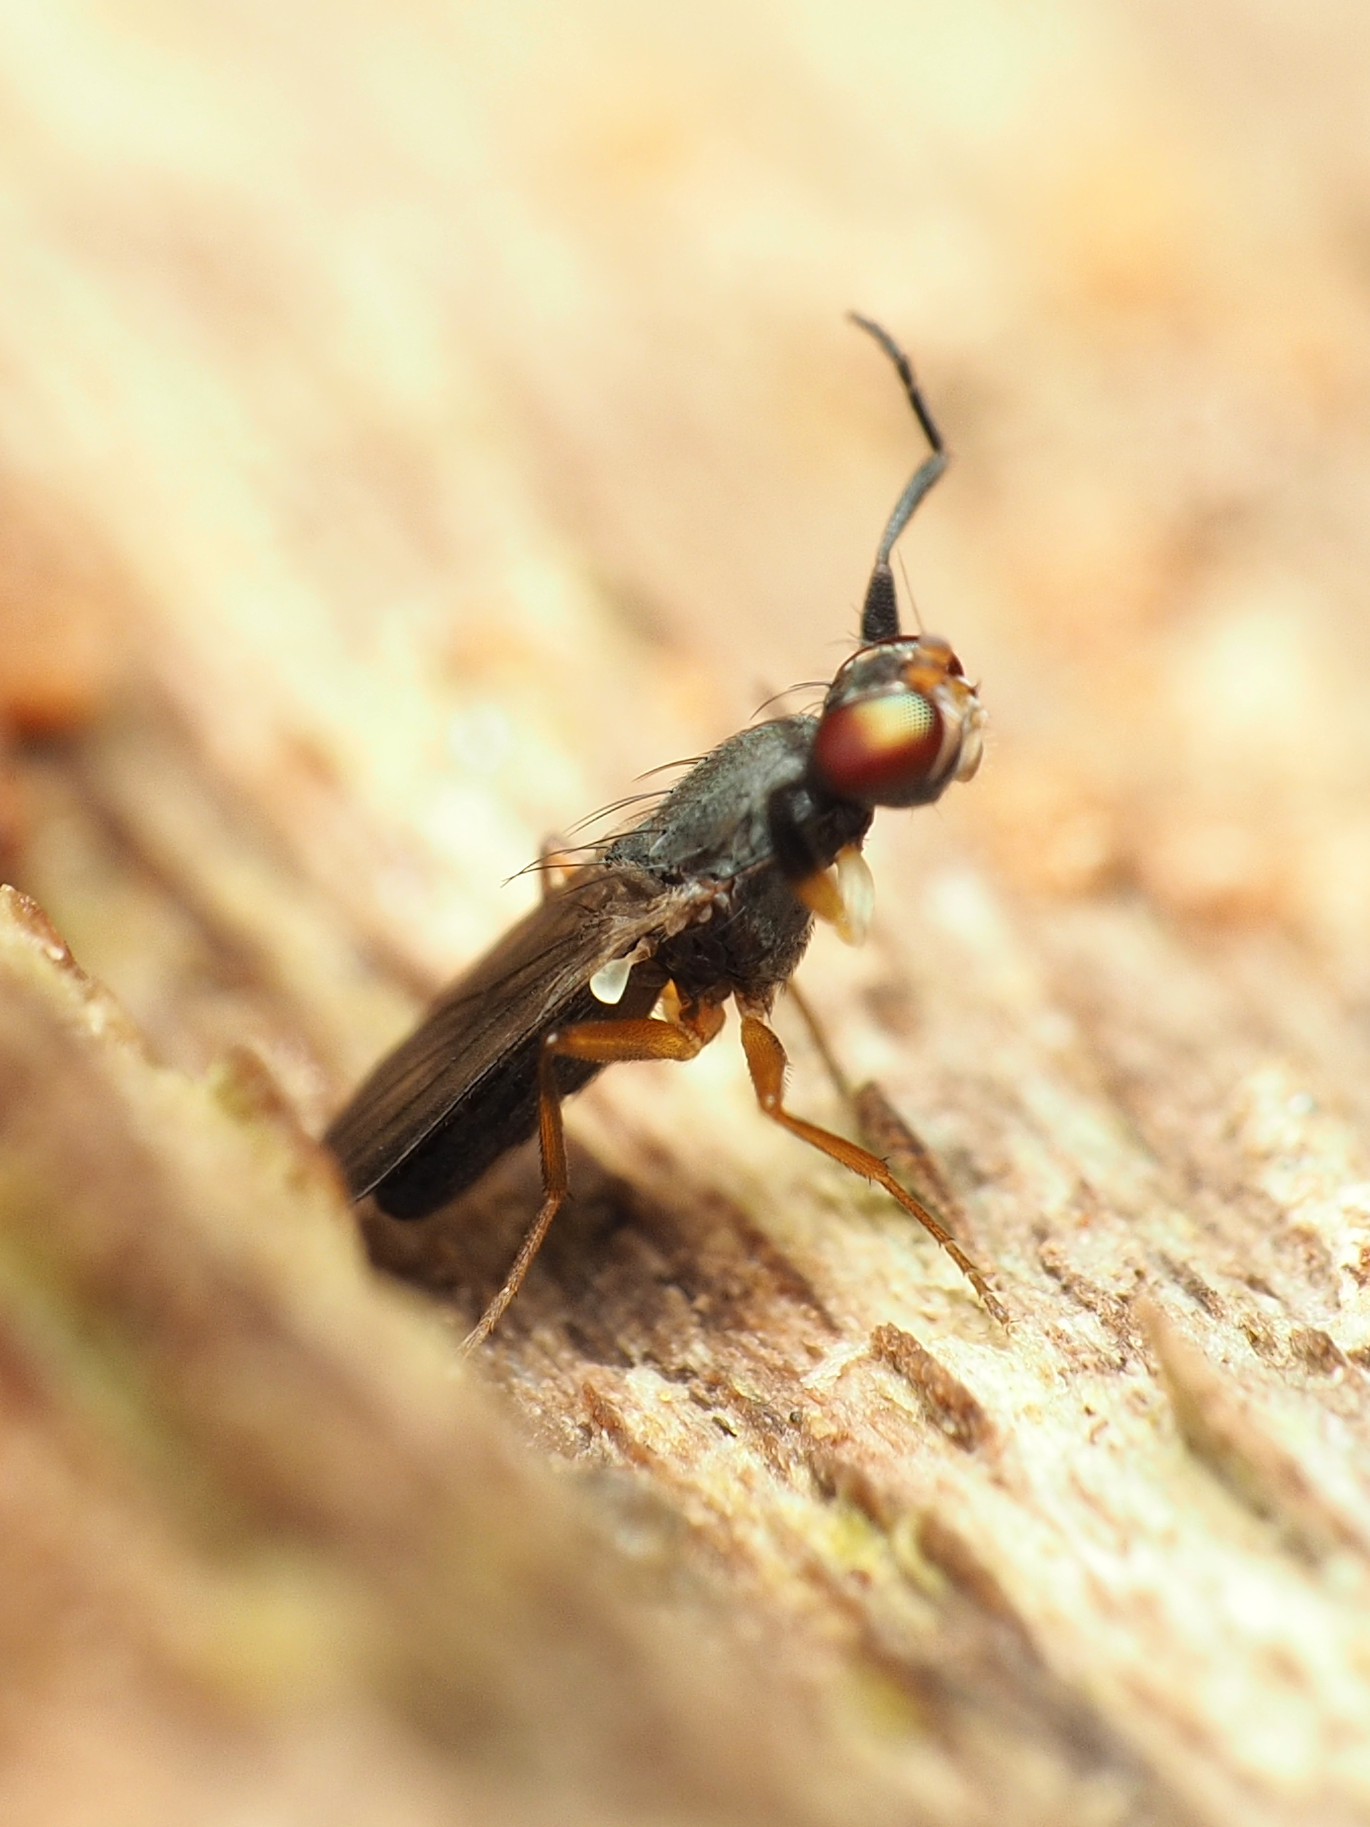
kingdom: Animalia
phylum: Arthropoda
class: Insecta
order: Diptera
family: Clusiidae
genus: Heteromeringia
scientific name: Heteromeringia nitida
